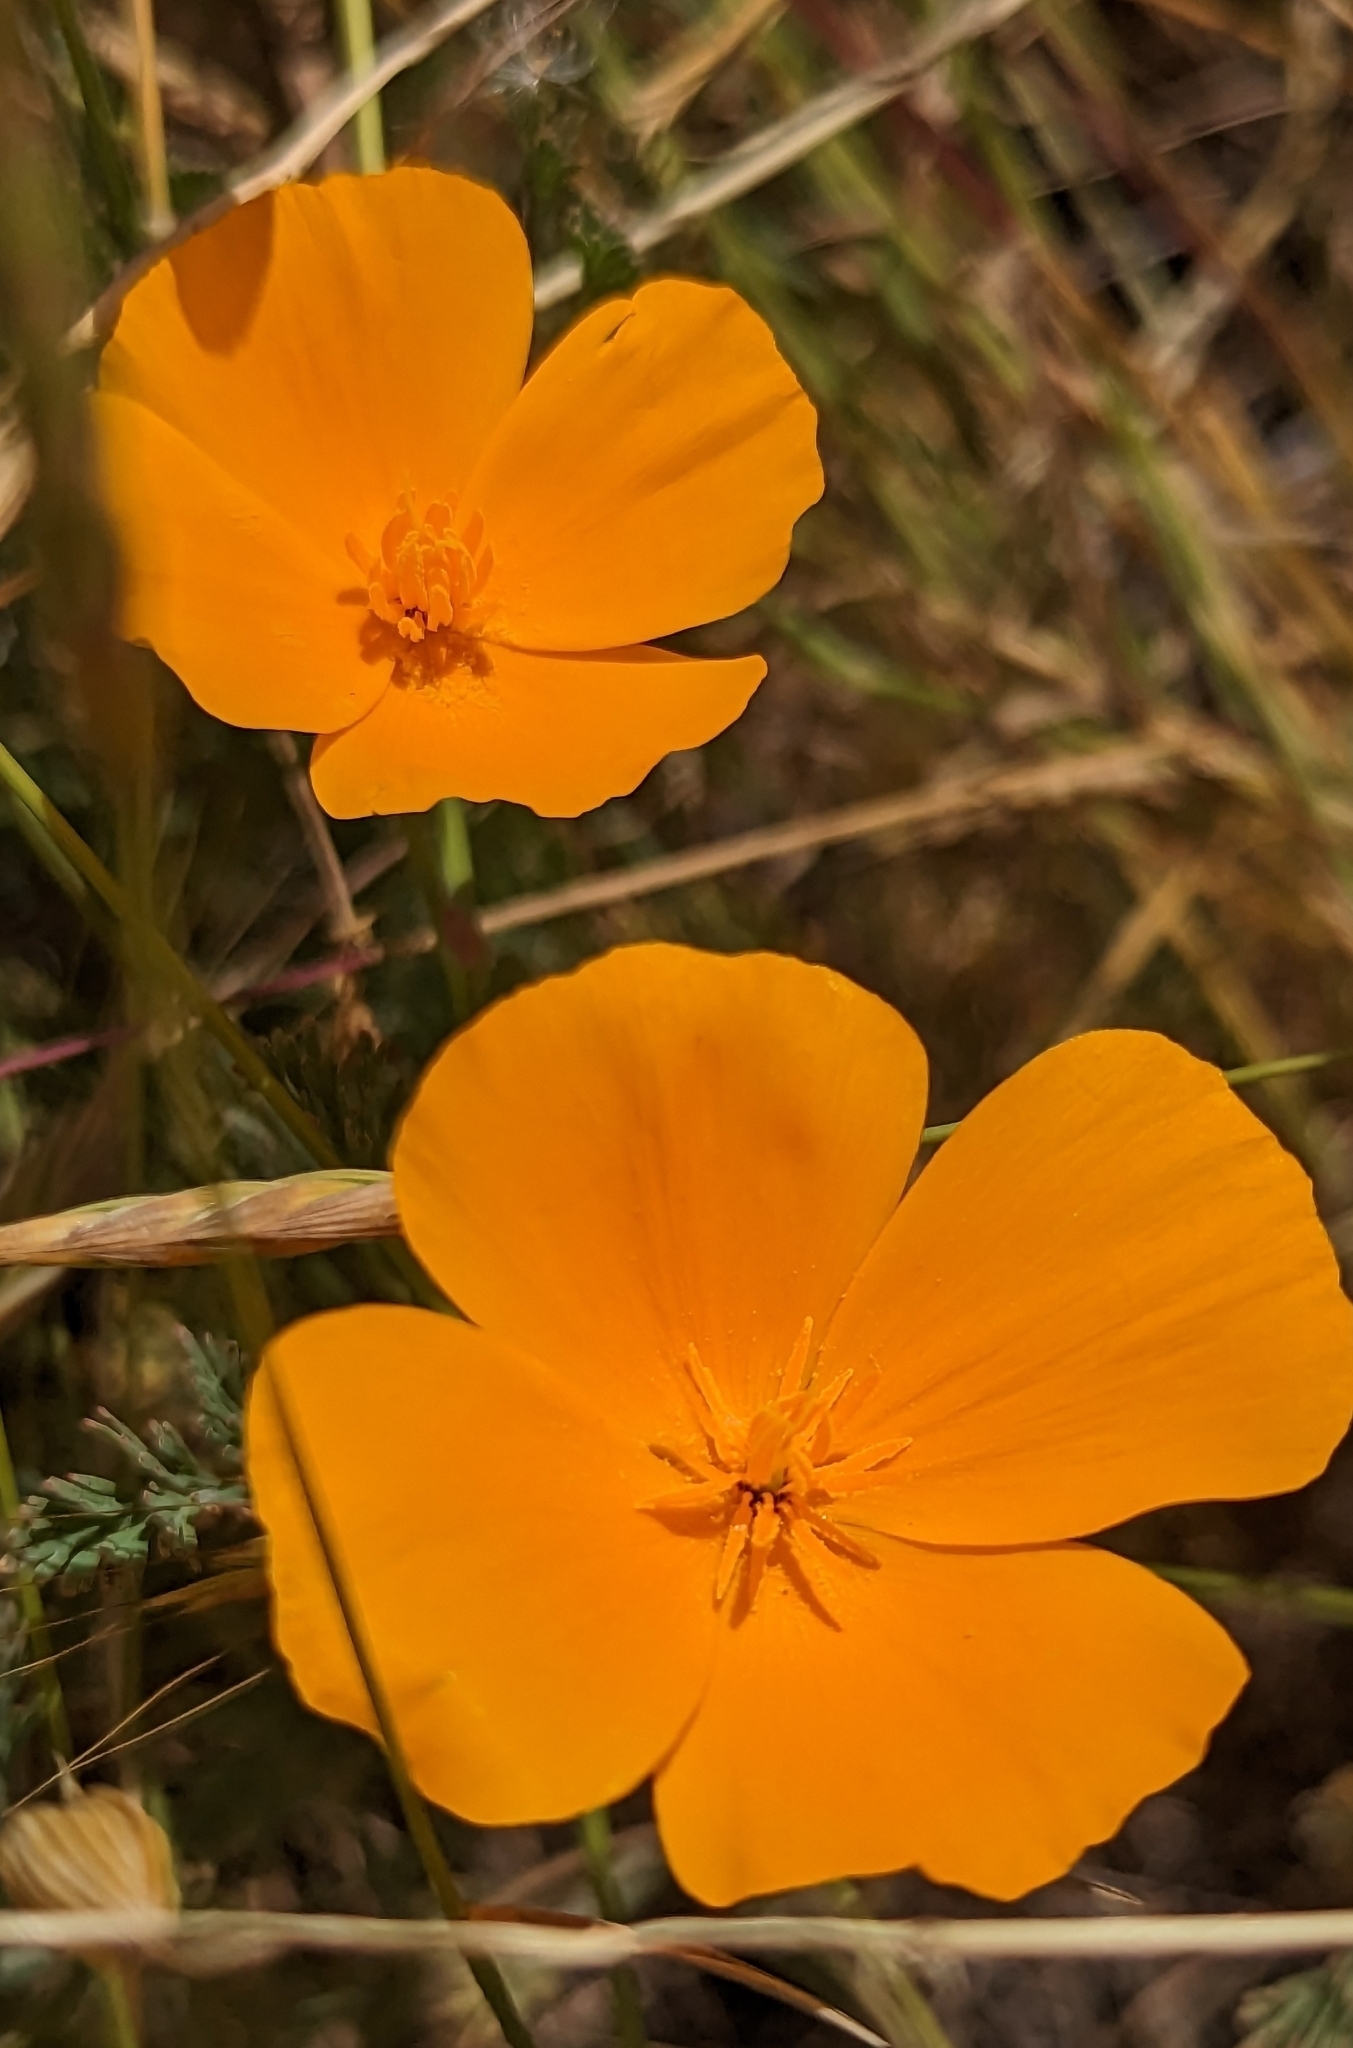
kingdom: Plantae
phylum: Tracheophyta
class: Magnoliopsida
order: Ranunculales
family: Papaveraceae
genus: Eschscholzia
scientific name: Eschscholzia californica
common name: California poppy
